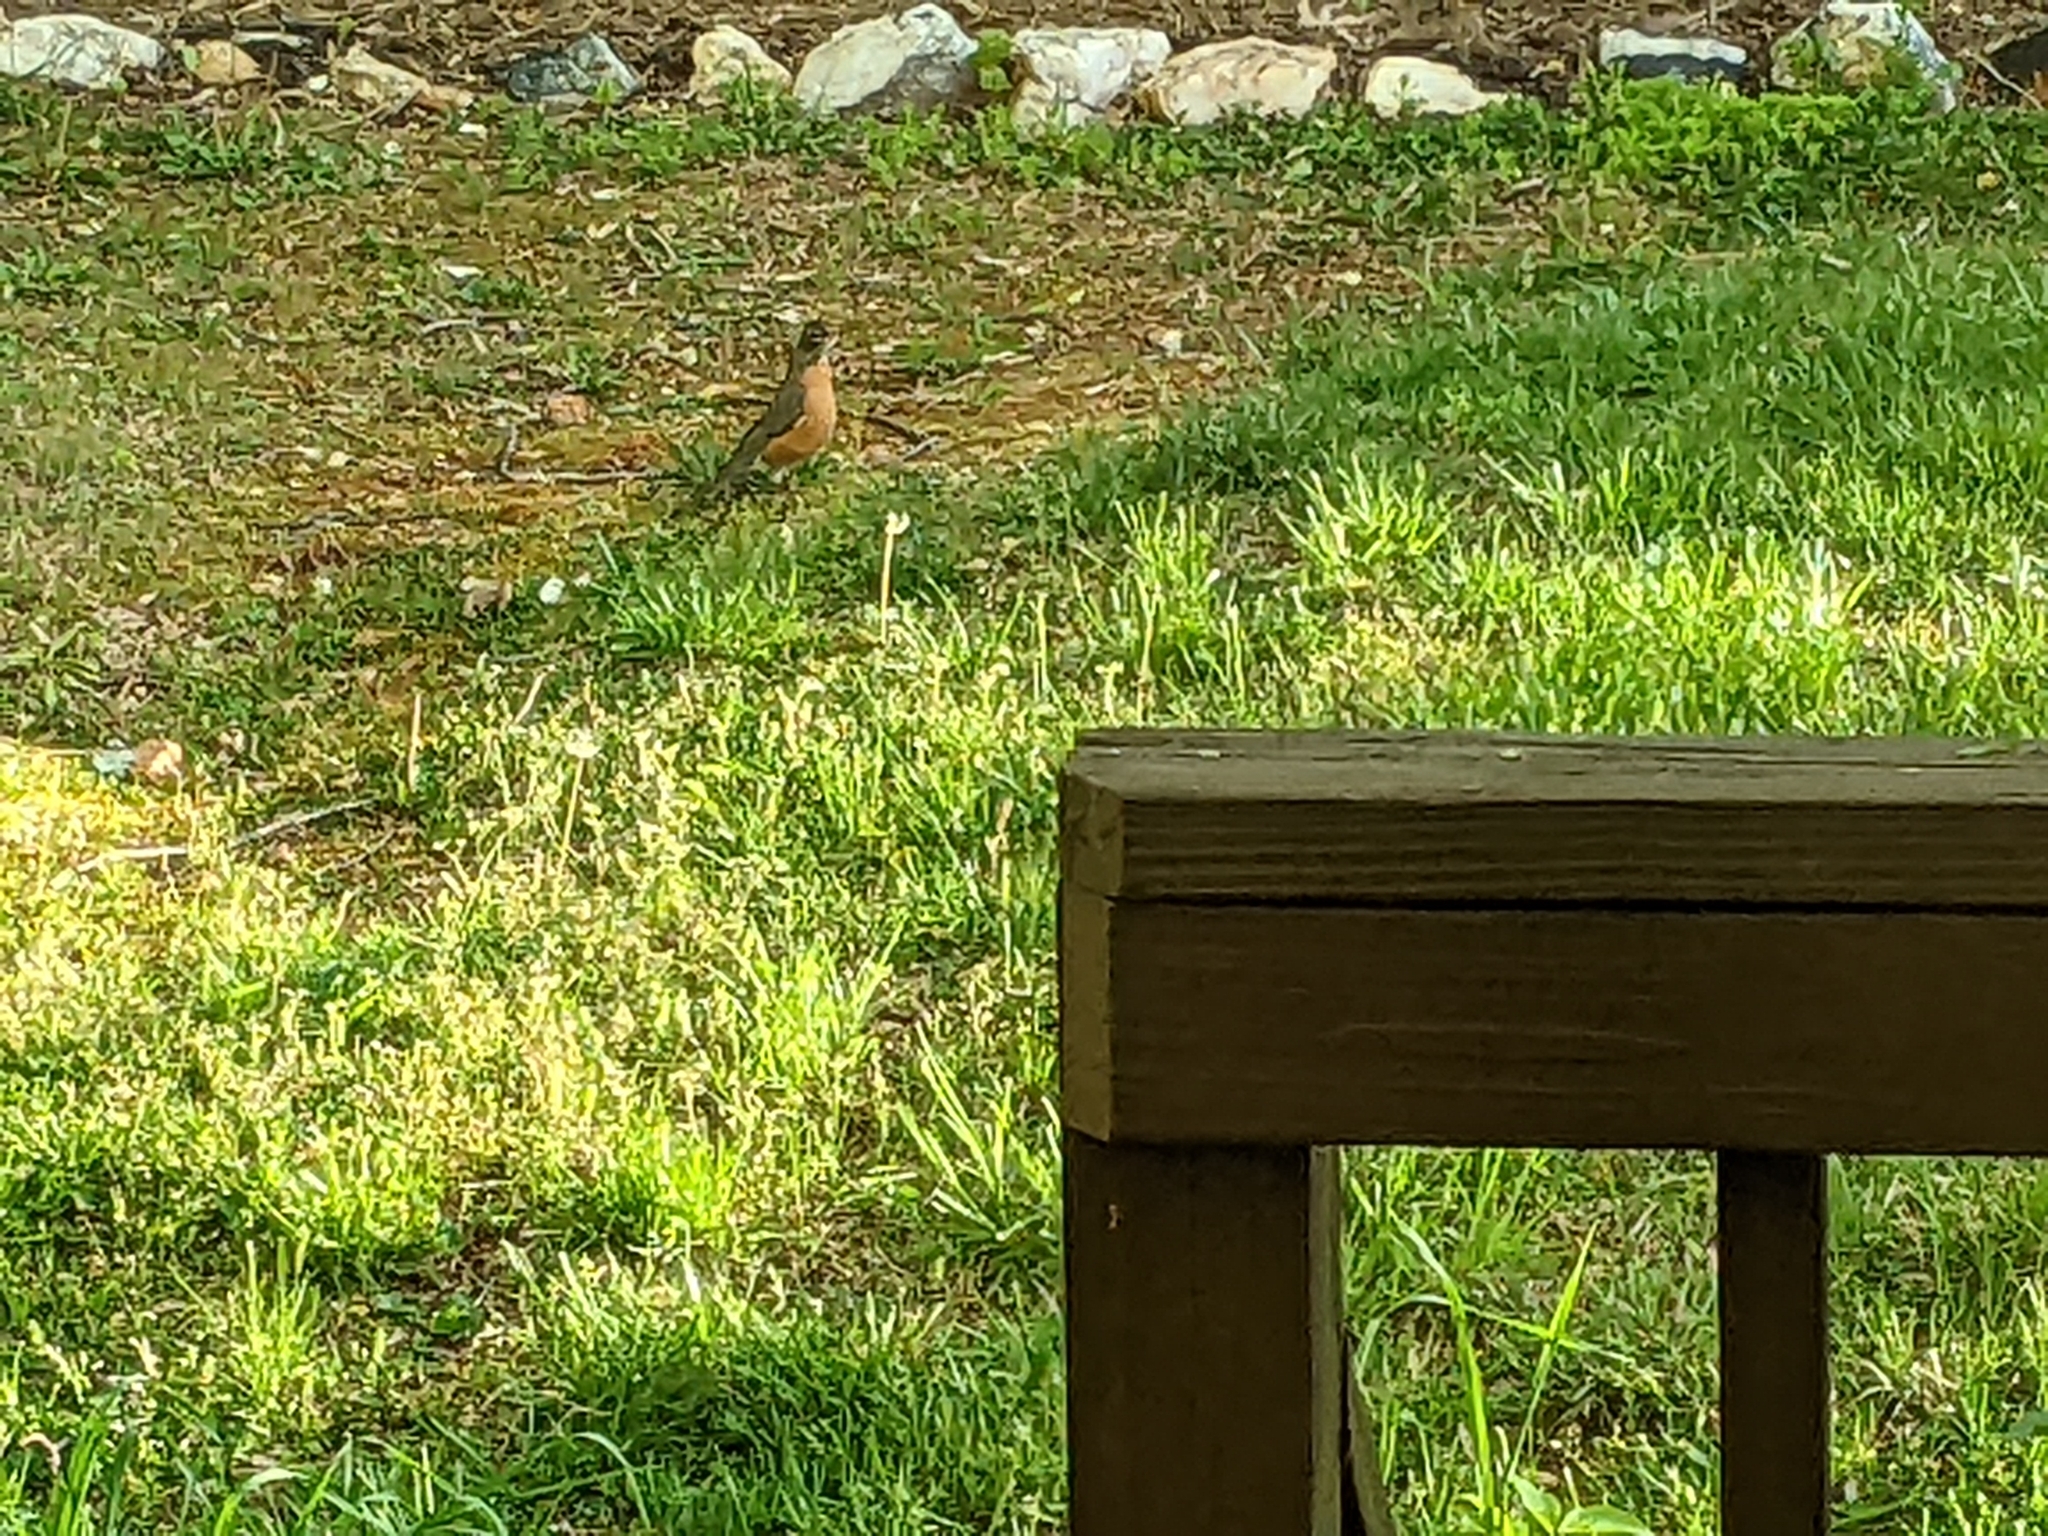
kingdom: Animalia
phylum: Chordata
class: Aves
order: Passeriformes
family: Turdidae
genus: Turdus
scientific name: Turdus migratorius
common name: American robin
